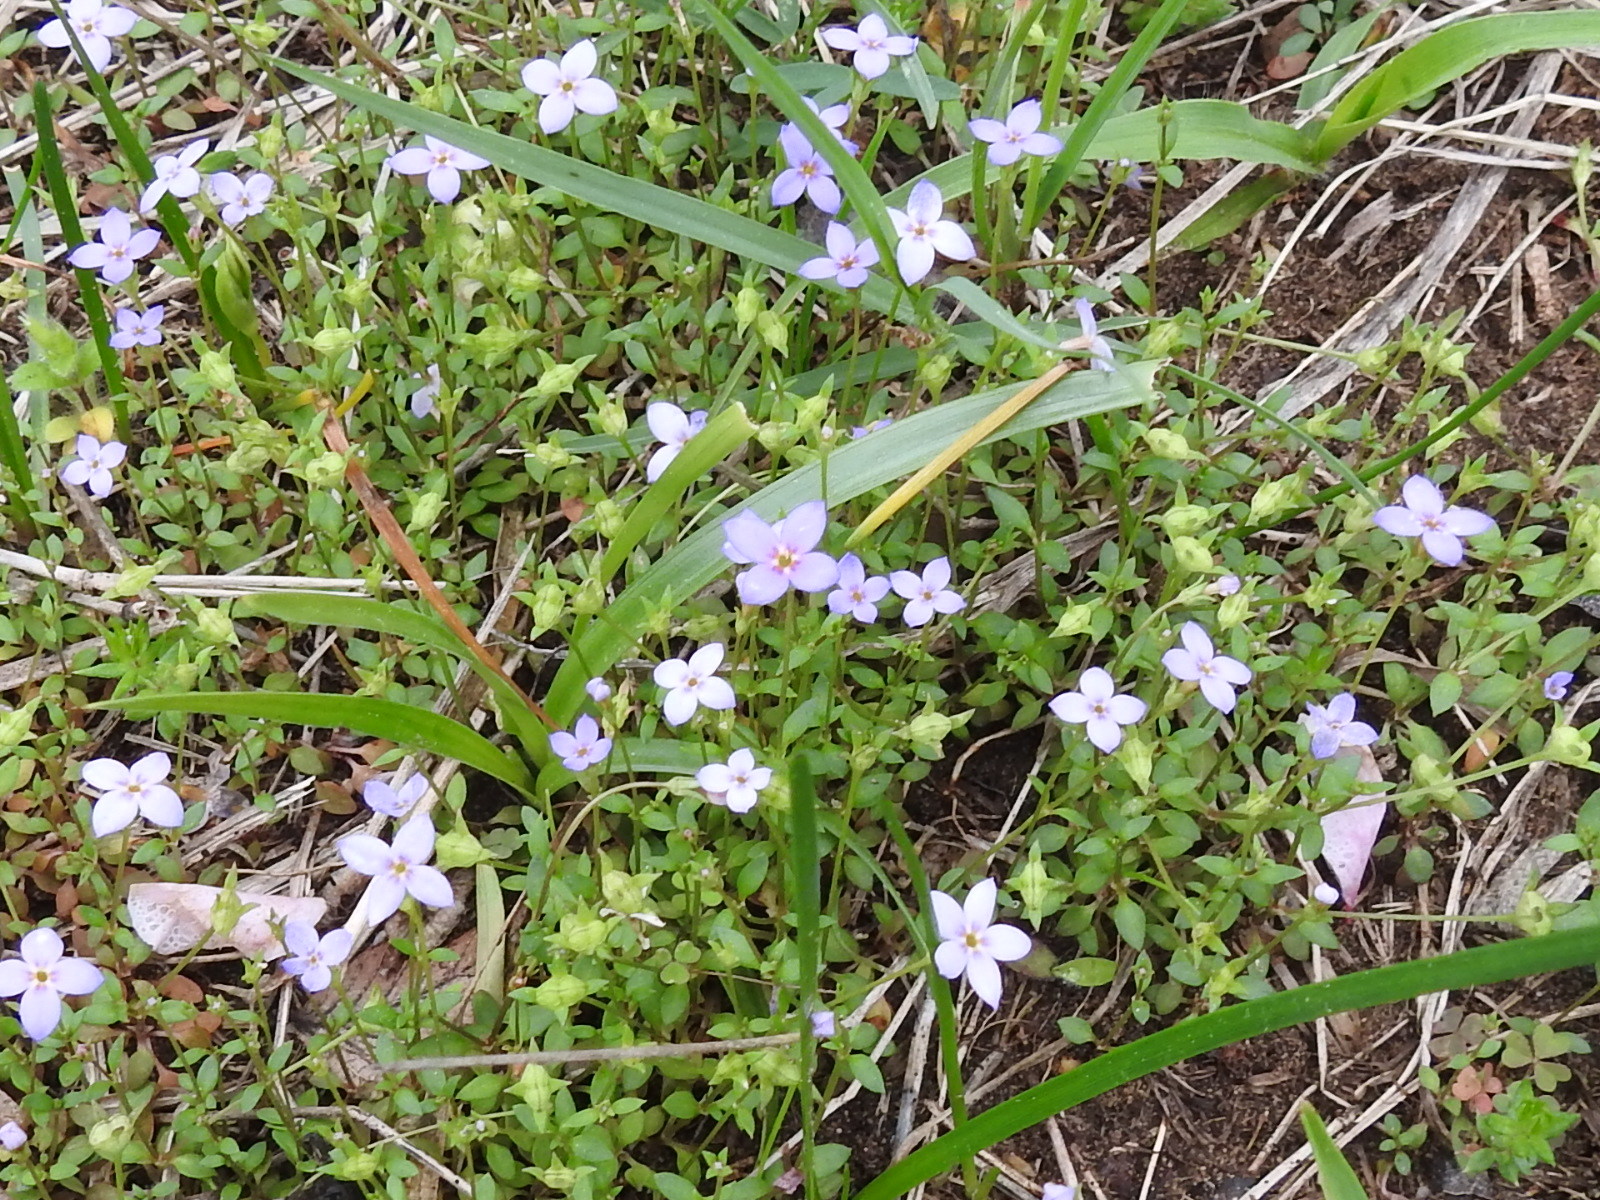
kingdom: Plantae
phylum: Tracheophyta
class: Magnoliopsida
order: Gentianales
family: Rubiaceae
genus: Houstonia
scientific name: Houstonia pusilla
